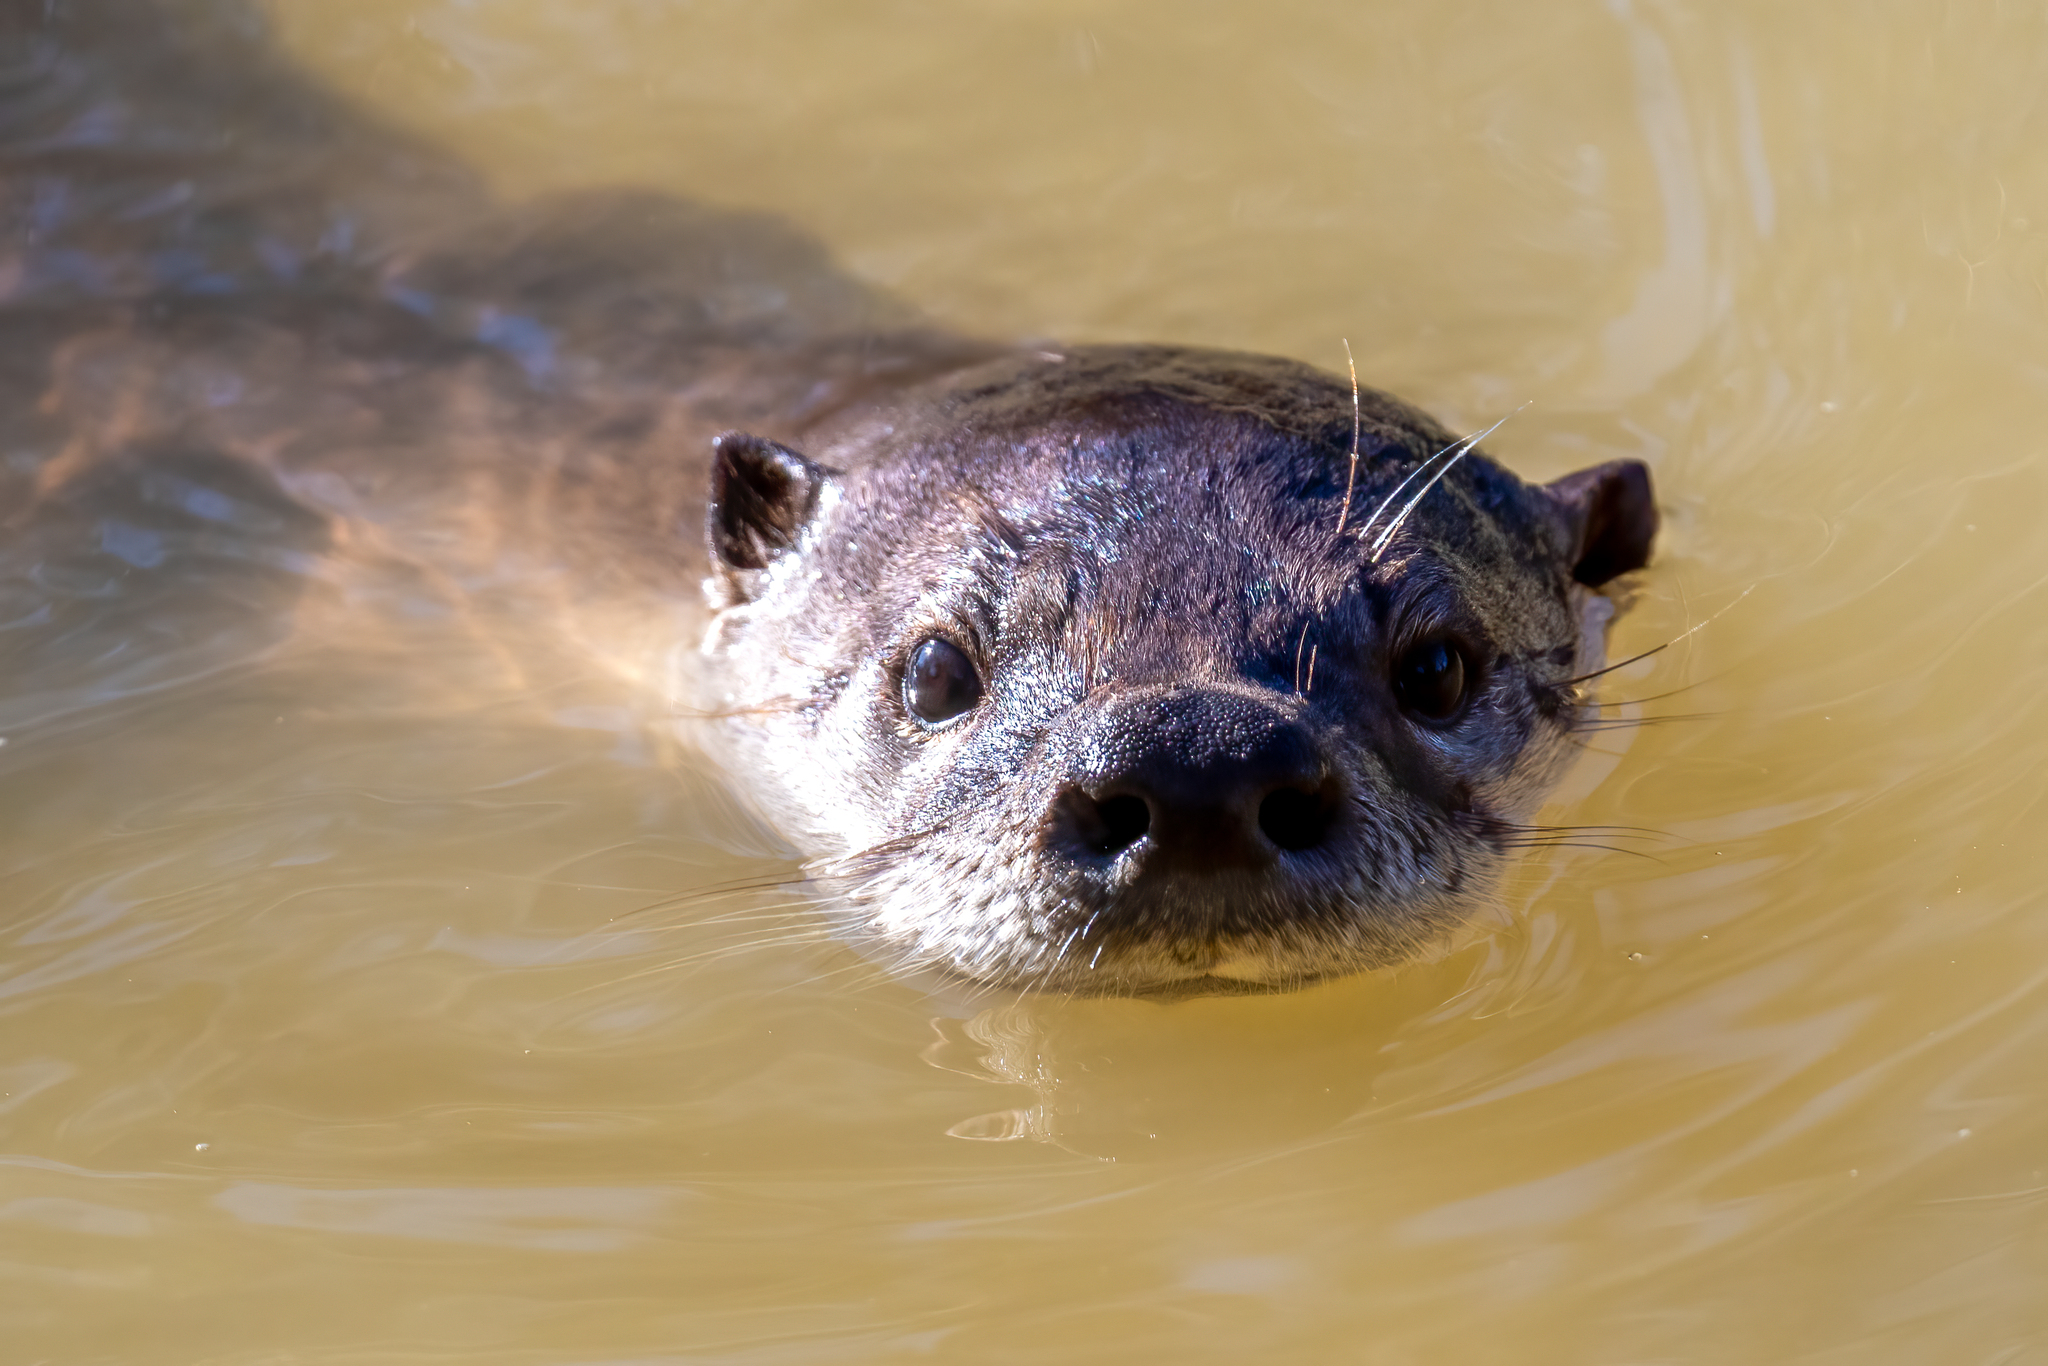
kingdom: Animalia
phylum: Chordata
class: Mammalia
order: Carnivora
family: Mustelidae
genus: Lontra
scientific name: Lontra canadensis
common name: North american river otter
